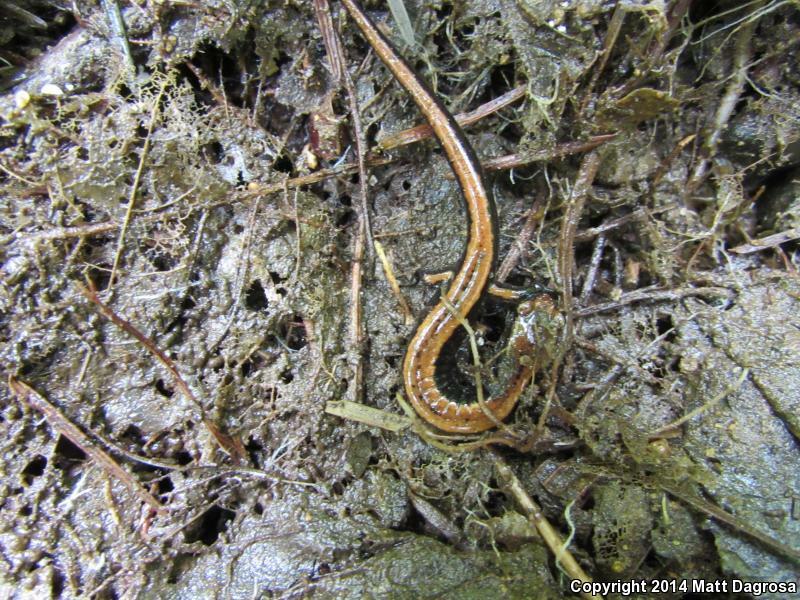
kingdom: Animalia
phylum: Chordata
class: Amphibia
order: Caudata
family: Plethodontidae
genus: Plethodon
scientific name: Plethodon vehiculum
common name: Western red-backed salamander
